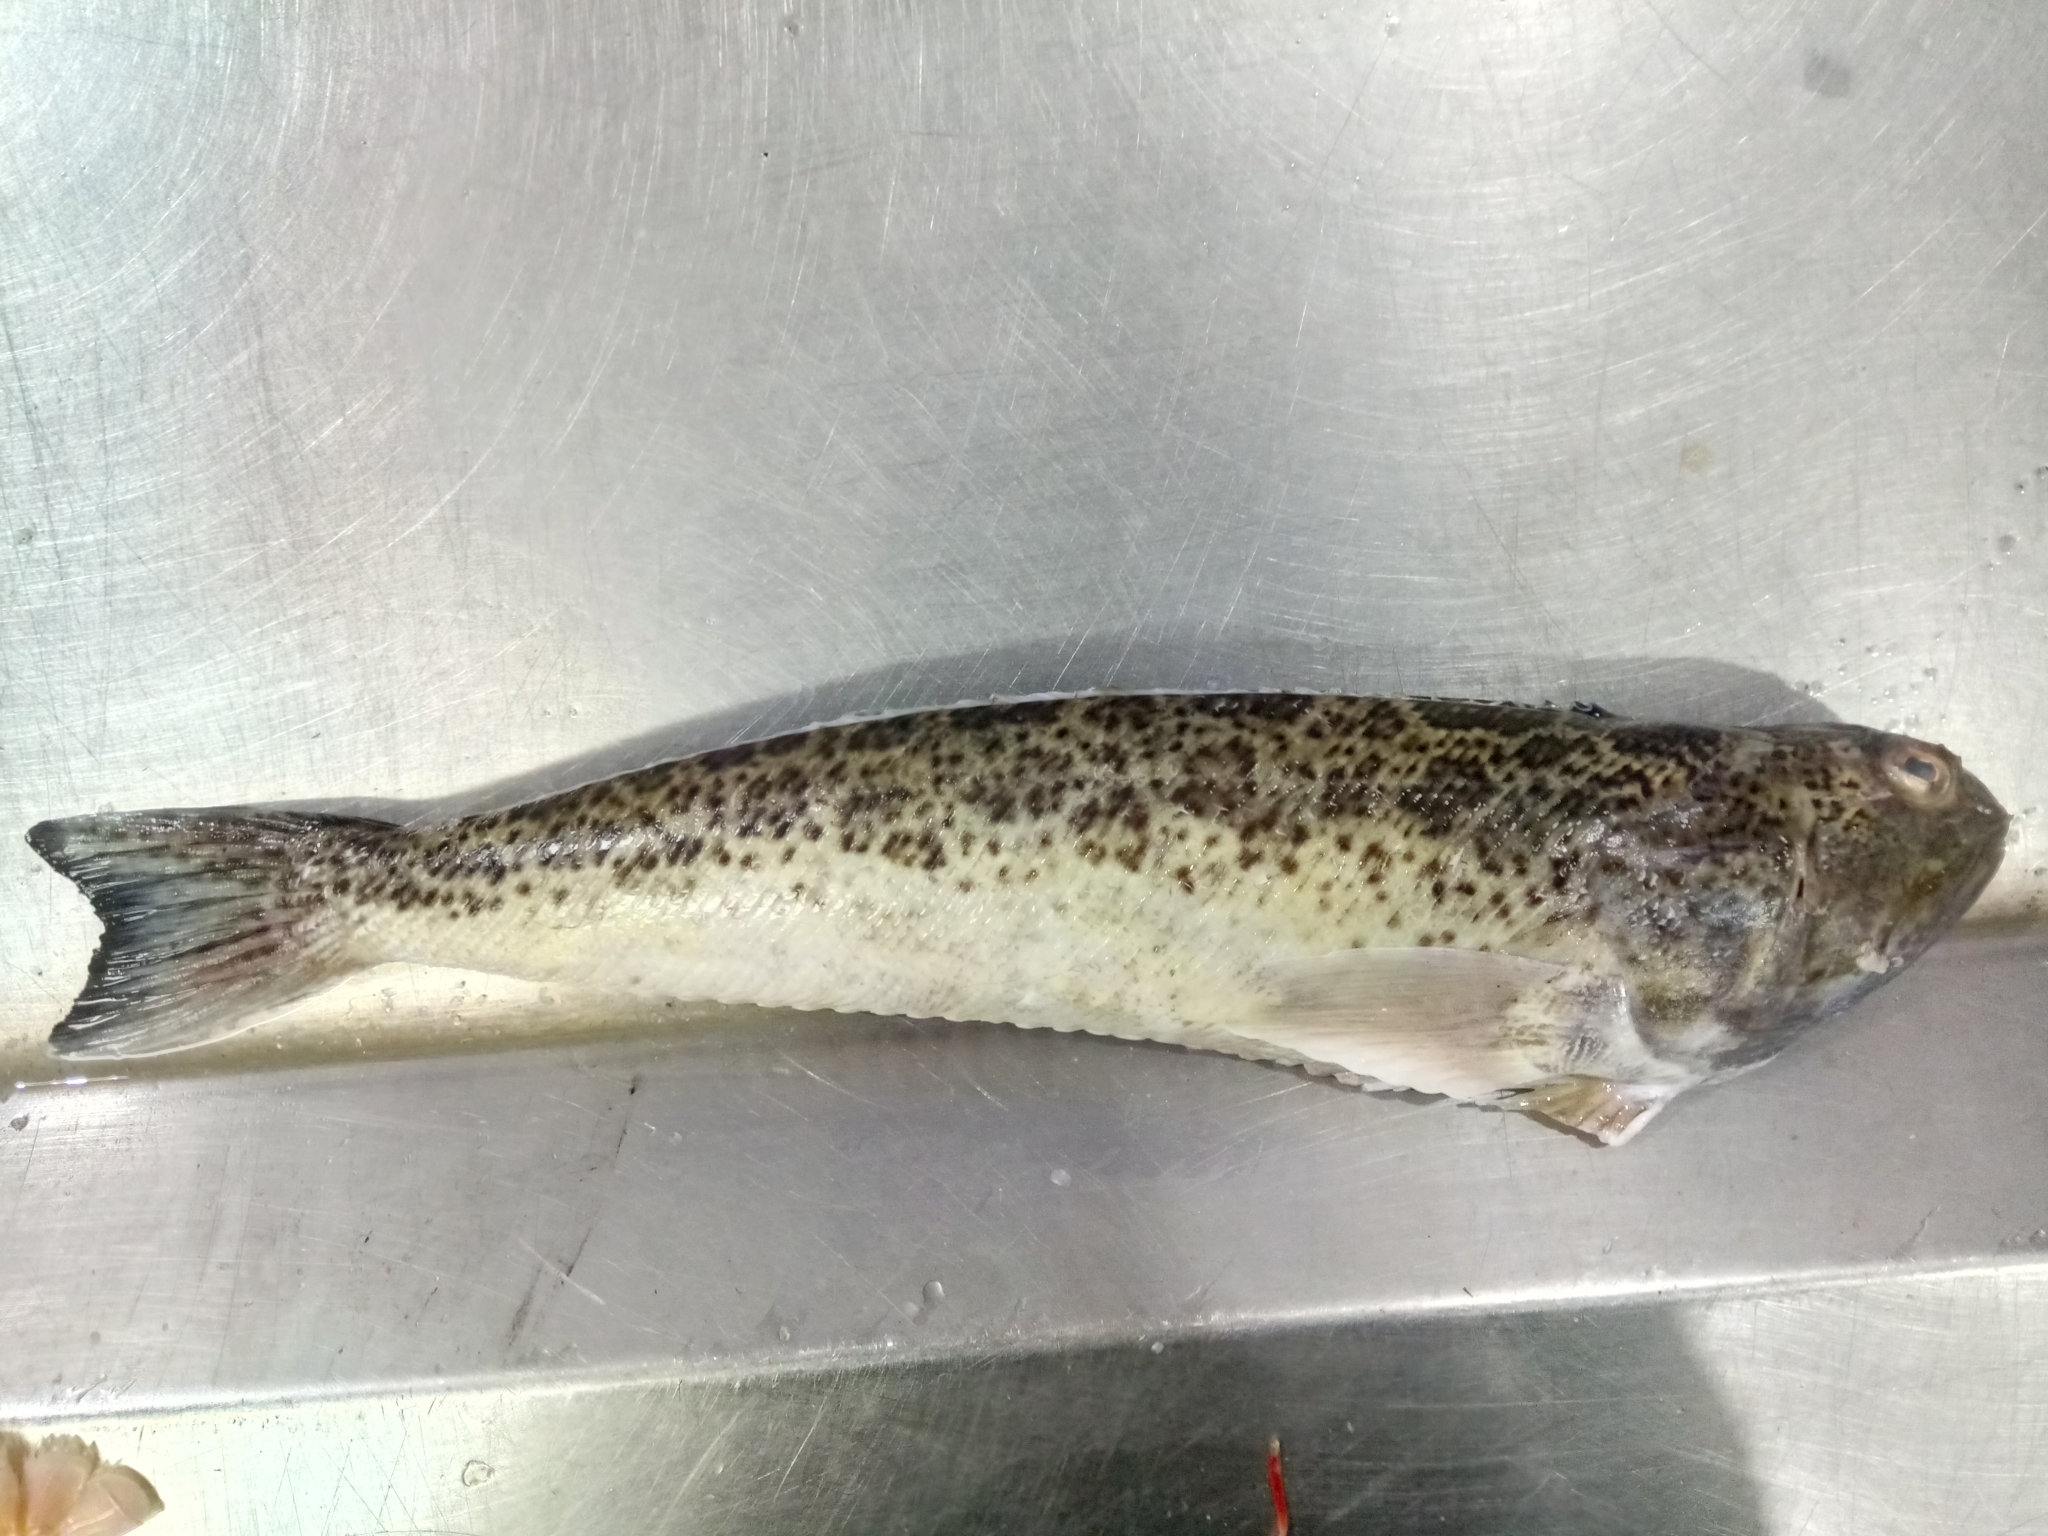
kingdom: Animalia
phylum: Chordata
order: Perciformes
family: Trachinidae
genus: Trachinus
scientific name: Trachinus radiatus
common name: Starry weever
